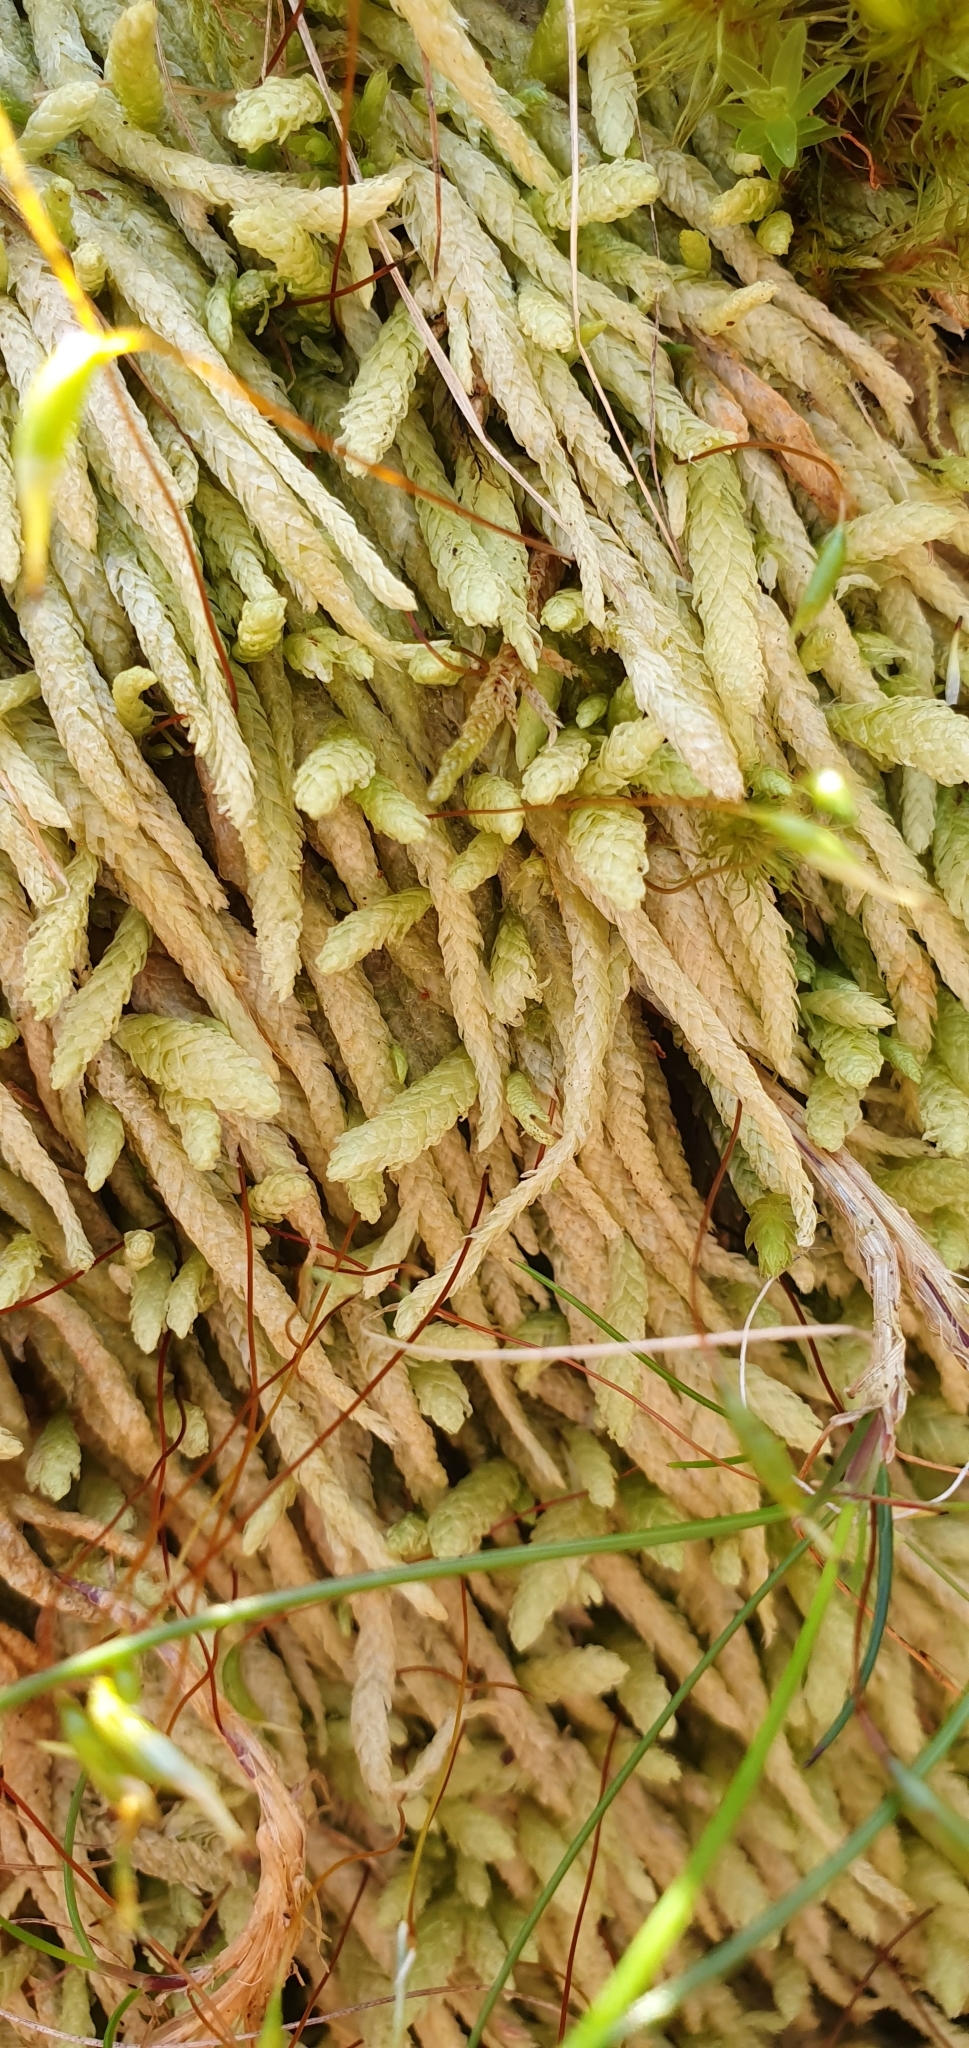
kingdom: Plantae
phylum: Bryophyta
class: Bryopsida
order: Hypnales
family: Plagiotheciaceae
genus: Plagiothecium
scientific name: Plagiothecium undulatum
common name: Waved silk-moss
